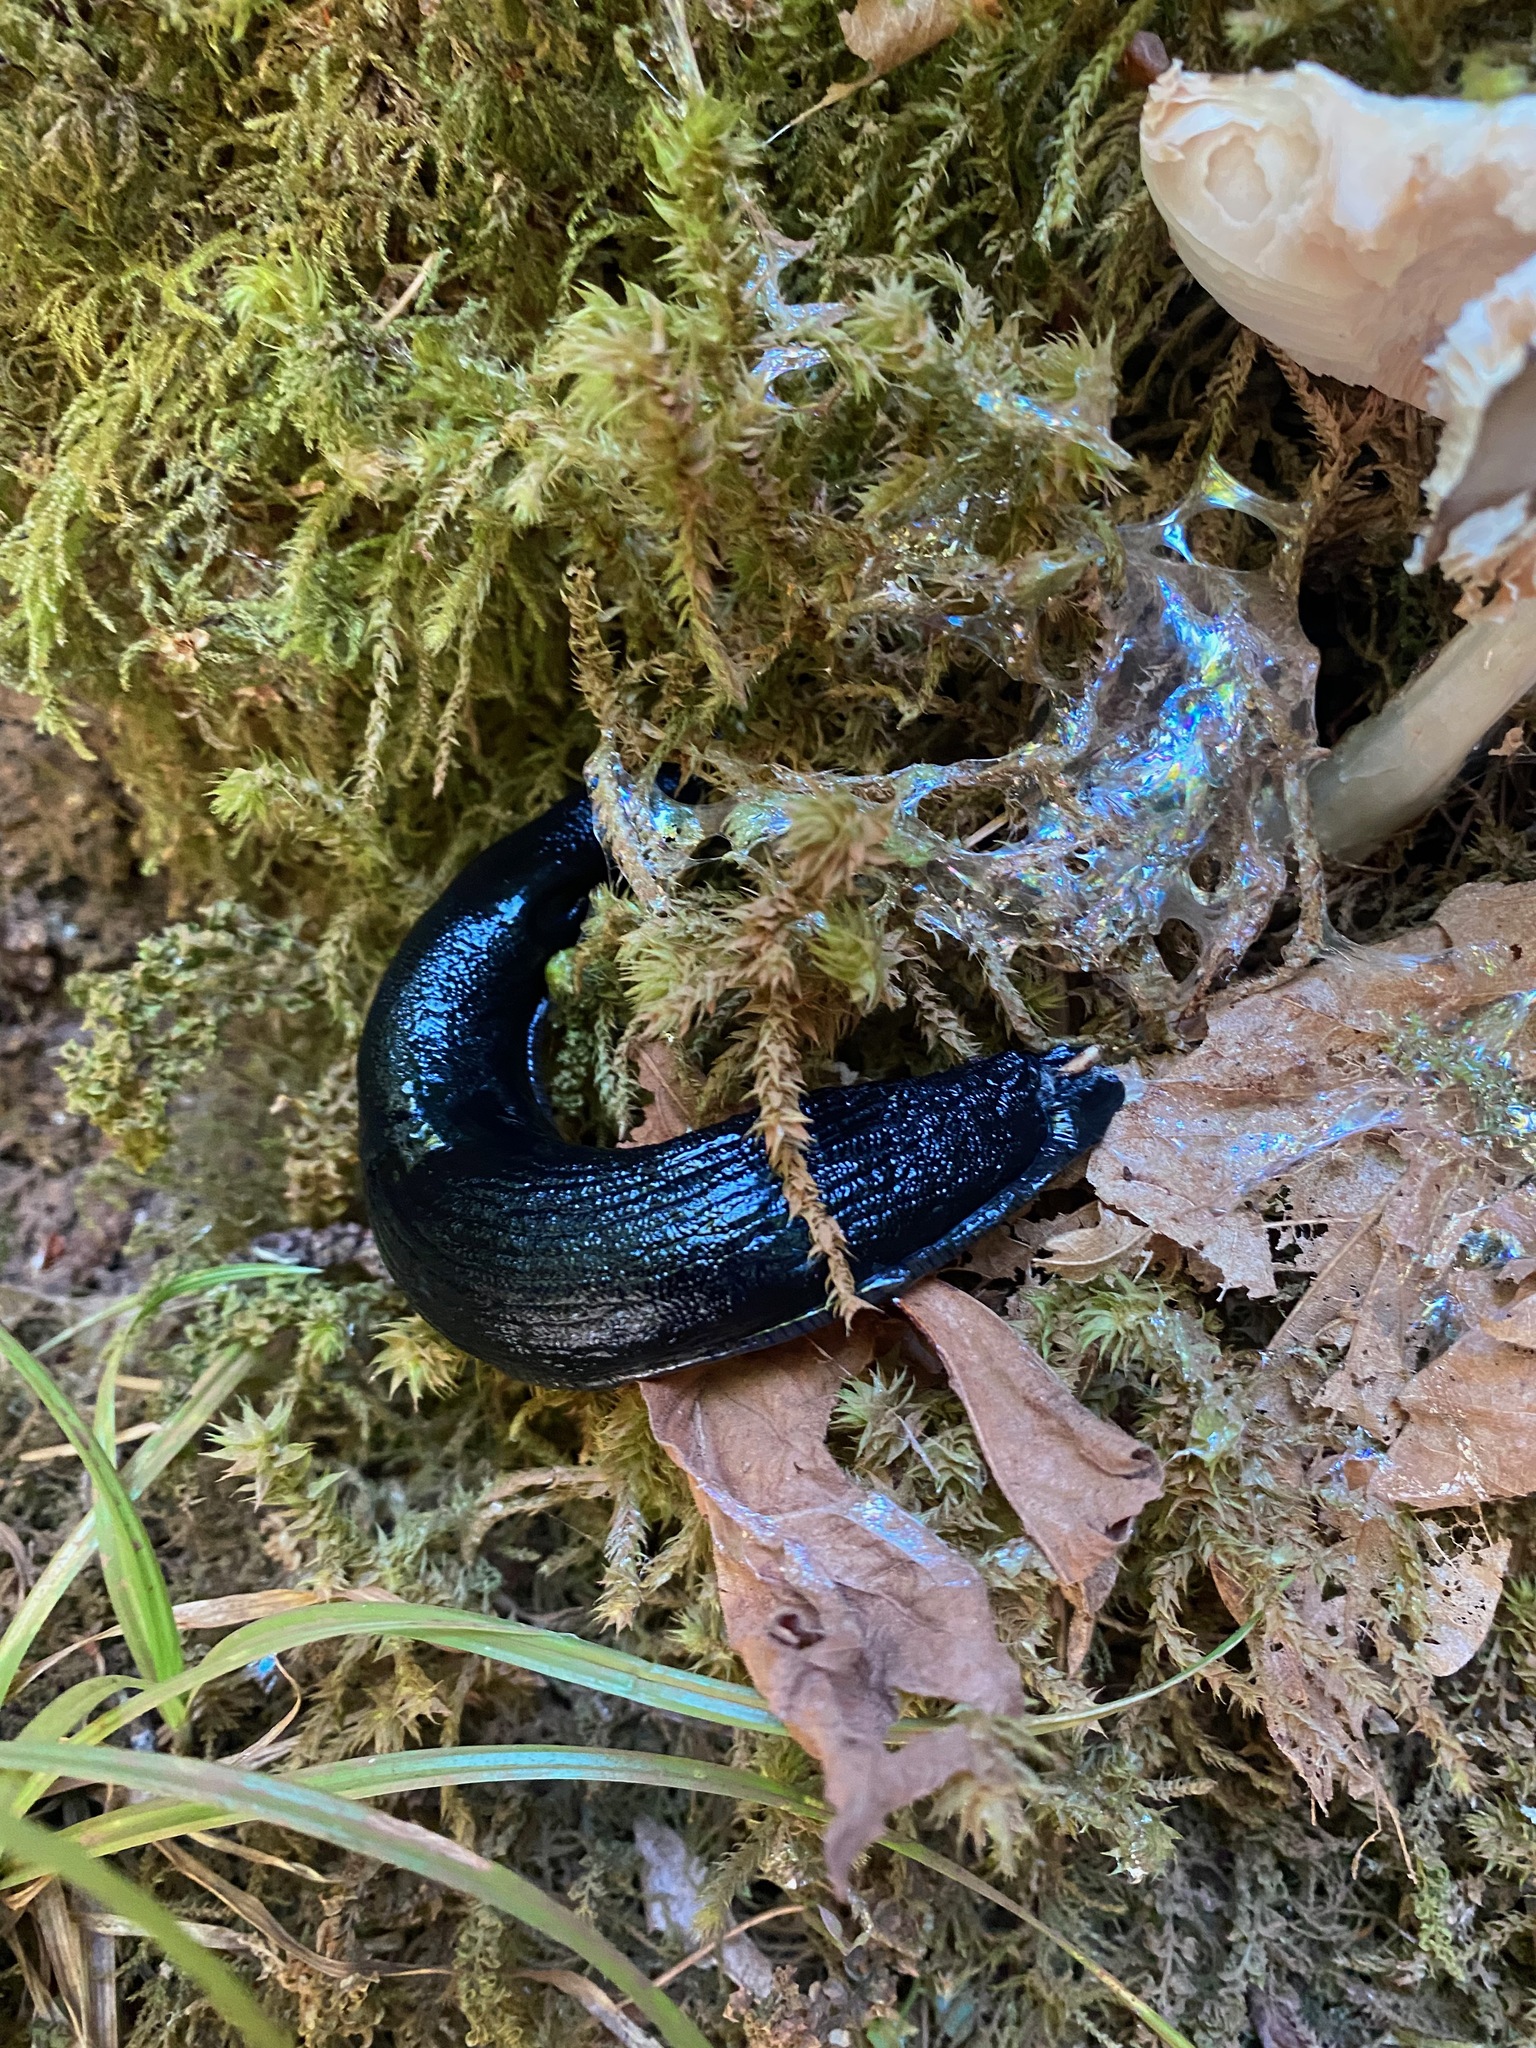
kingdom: Animalia
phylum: Mollusca
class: Gastropoda
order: Stylommatophora
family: Arionidae
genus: Arion
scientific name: Arion
